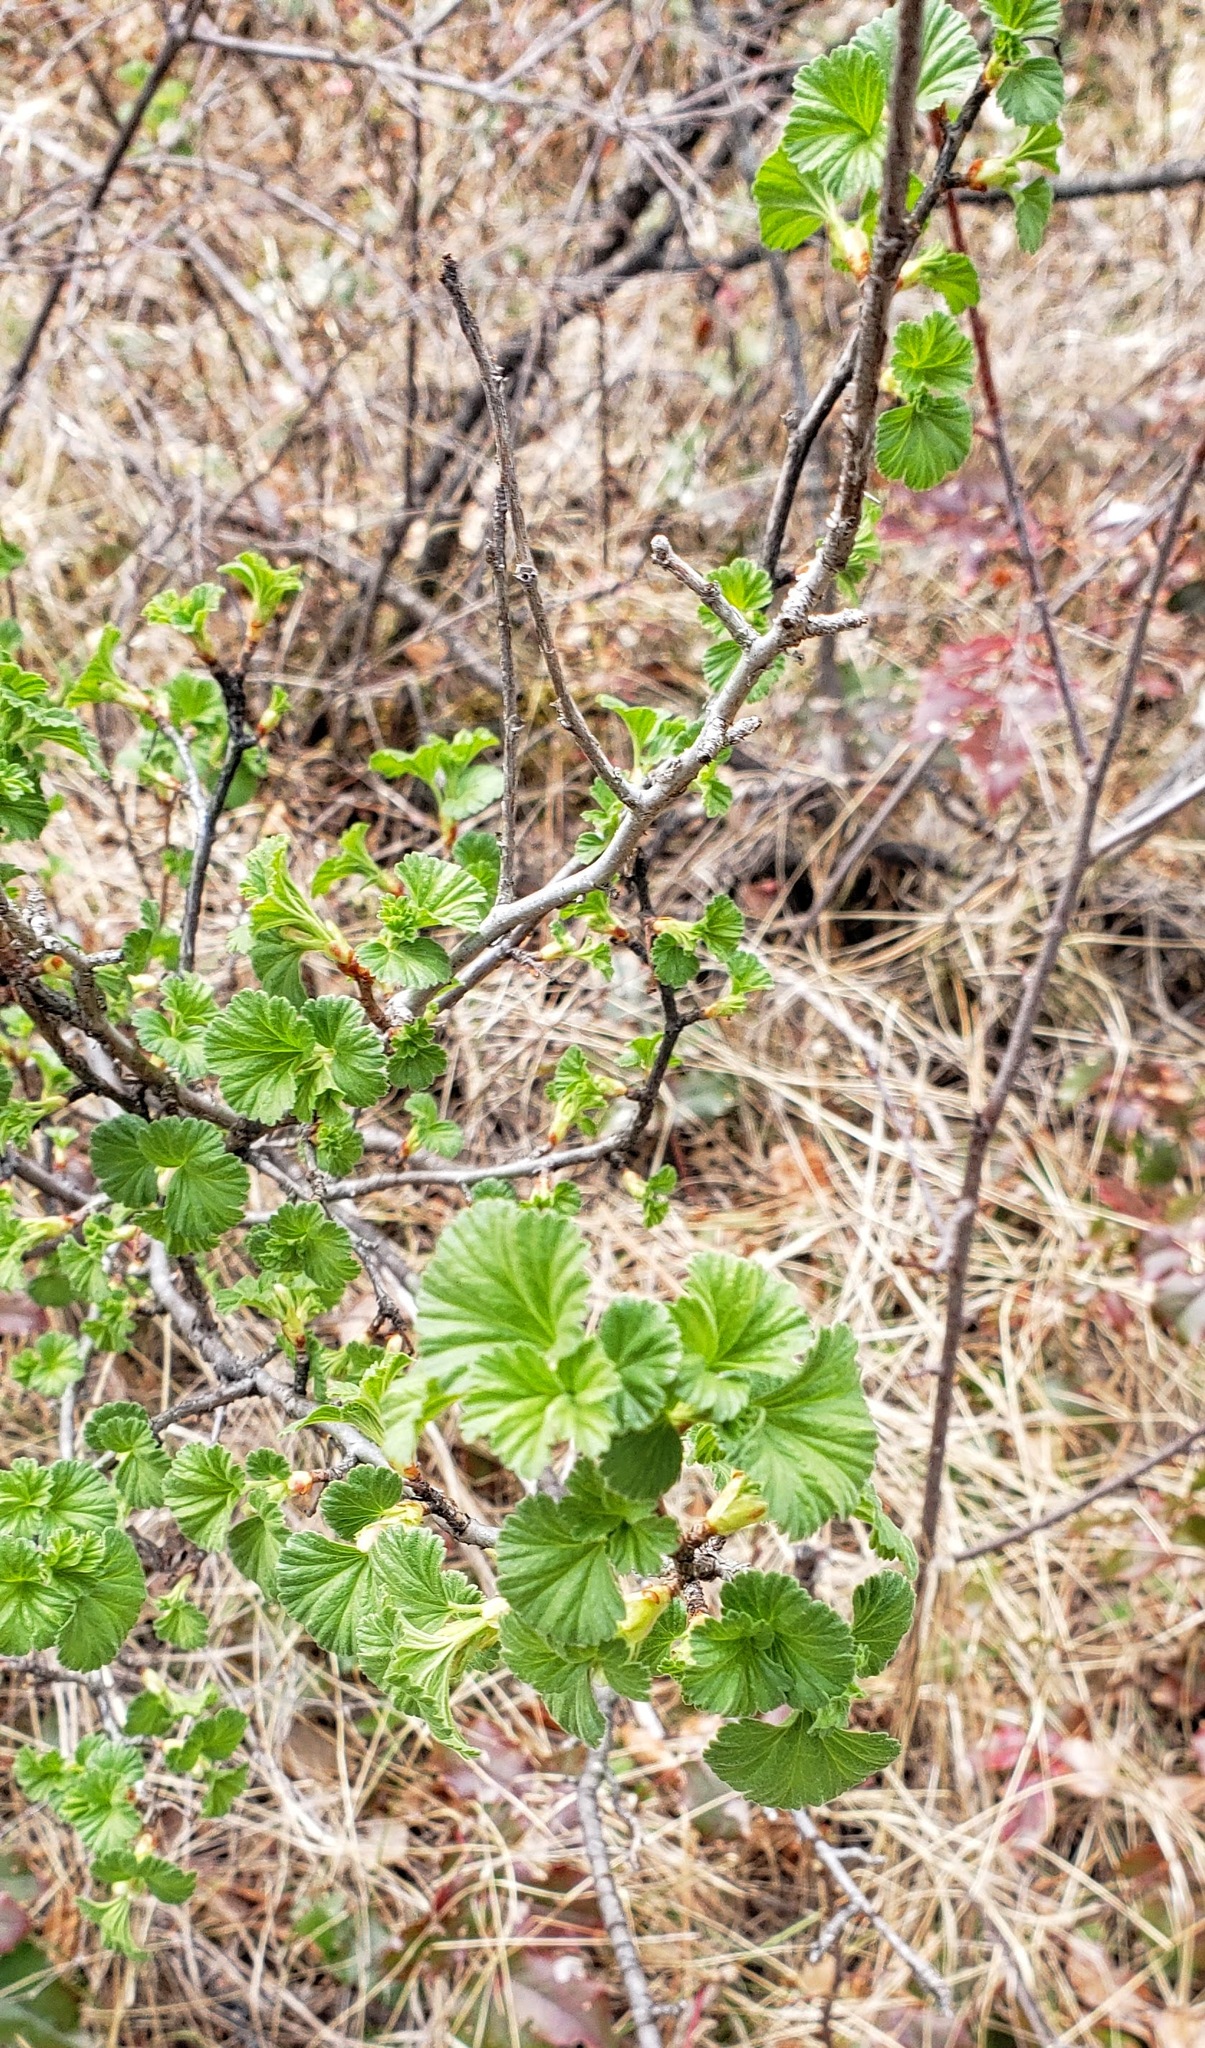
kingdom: Plantae
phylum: Tracheophyta
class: Magnoliopsida
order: Saxifragales
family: Grossulariaceae
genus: Ribes
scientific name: Ribes cereum
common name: Wax currant
